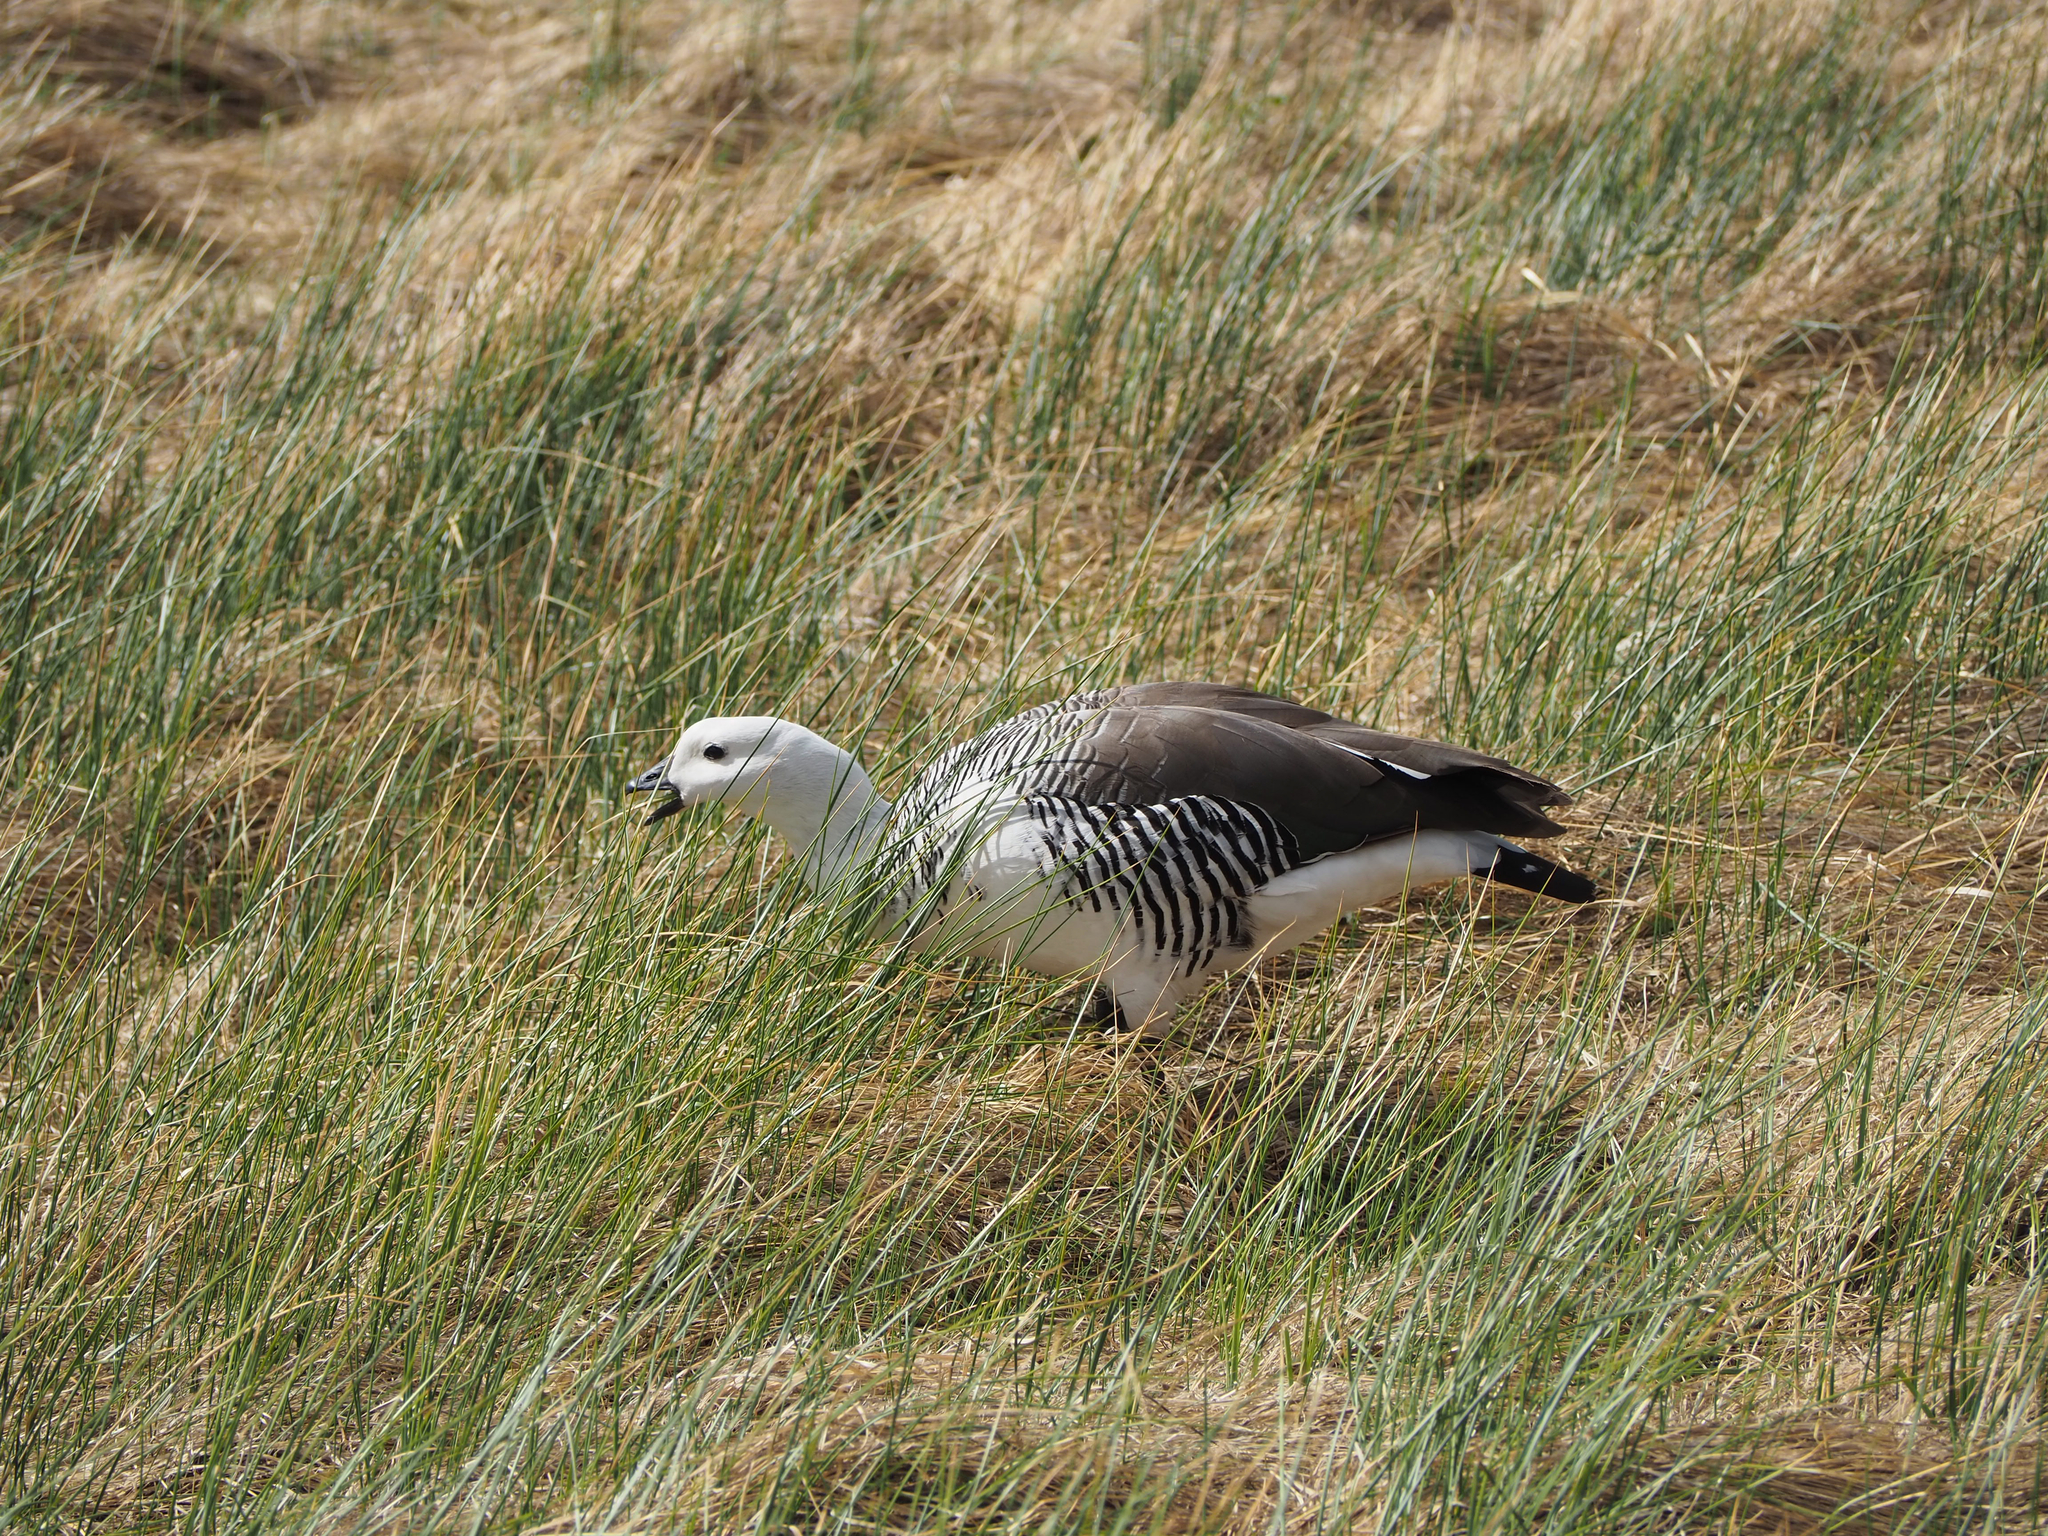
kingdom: Animalia
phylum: Chordata
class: Aves
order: Anseriformes
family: Anatidae
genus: Chloephaga
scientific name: Chloephaga picta
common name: Upland goose
